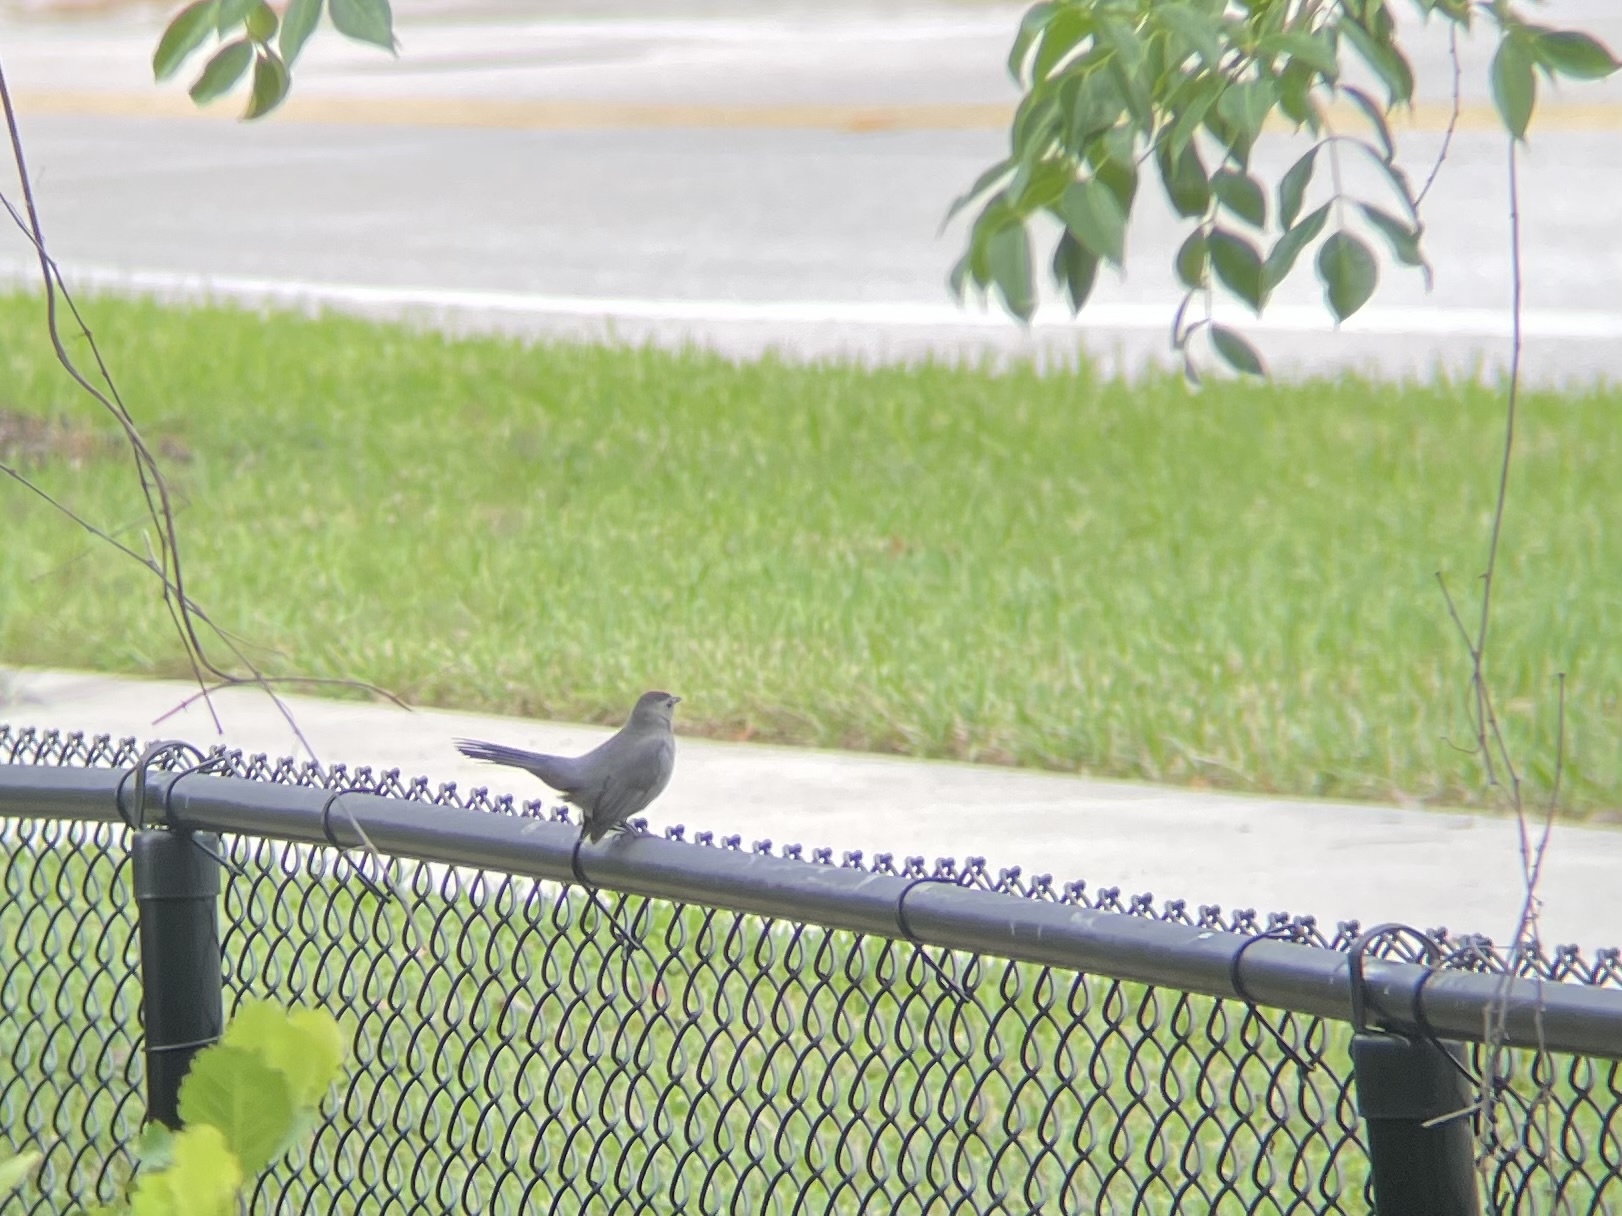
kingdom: Animalia
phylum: Chordata
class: Aves
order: Passeriformes
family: Mimidae
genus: Dumetella
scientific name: Dumetella carolinensis
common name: Gray catbird
